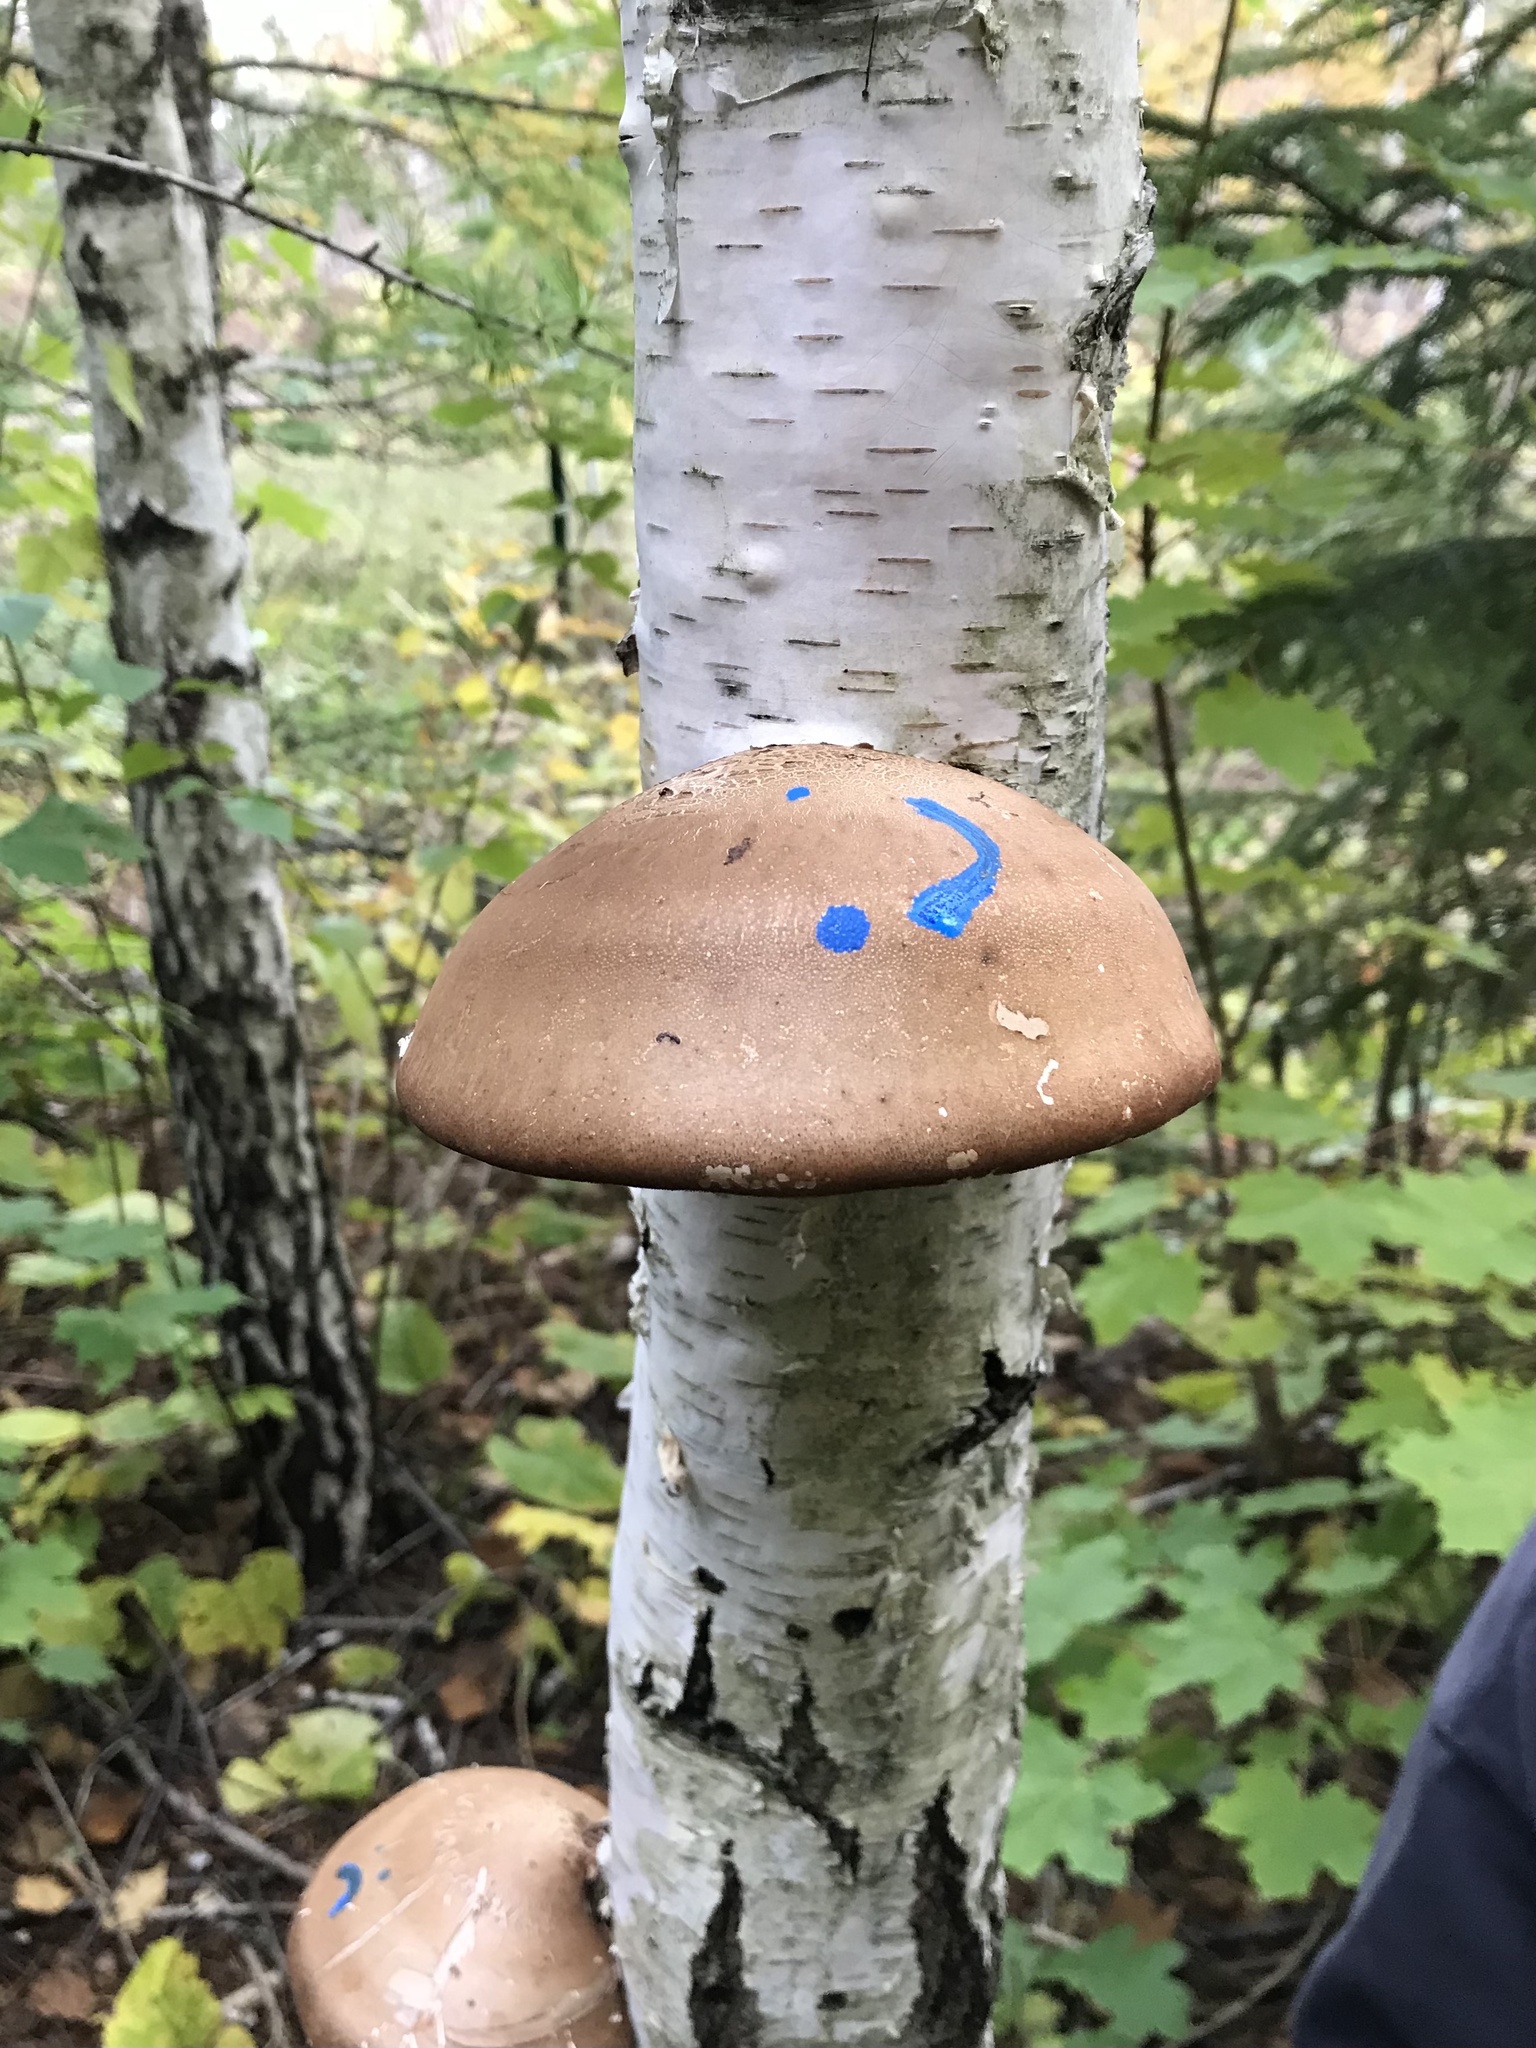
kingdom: Fungi
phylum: Basidiomycota
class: Agaricomycetes
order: Polyporales
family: Fomitopsidaceae
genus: Fomitopsis
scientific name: Fomitopsis betulina
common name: Birch polypore
